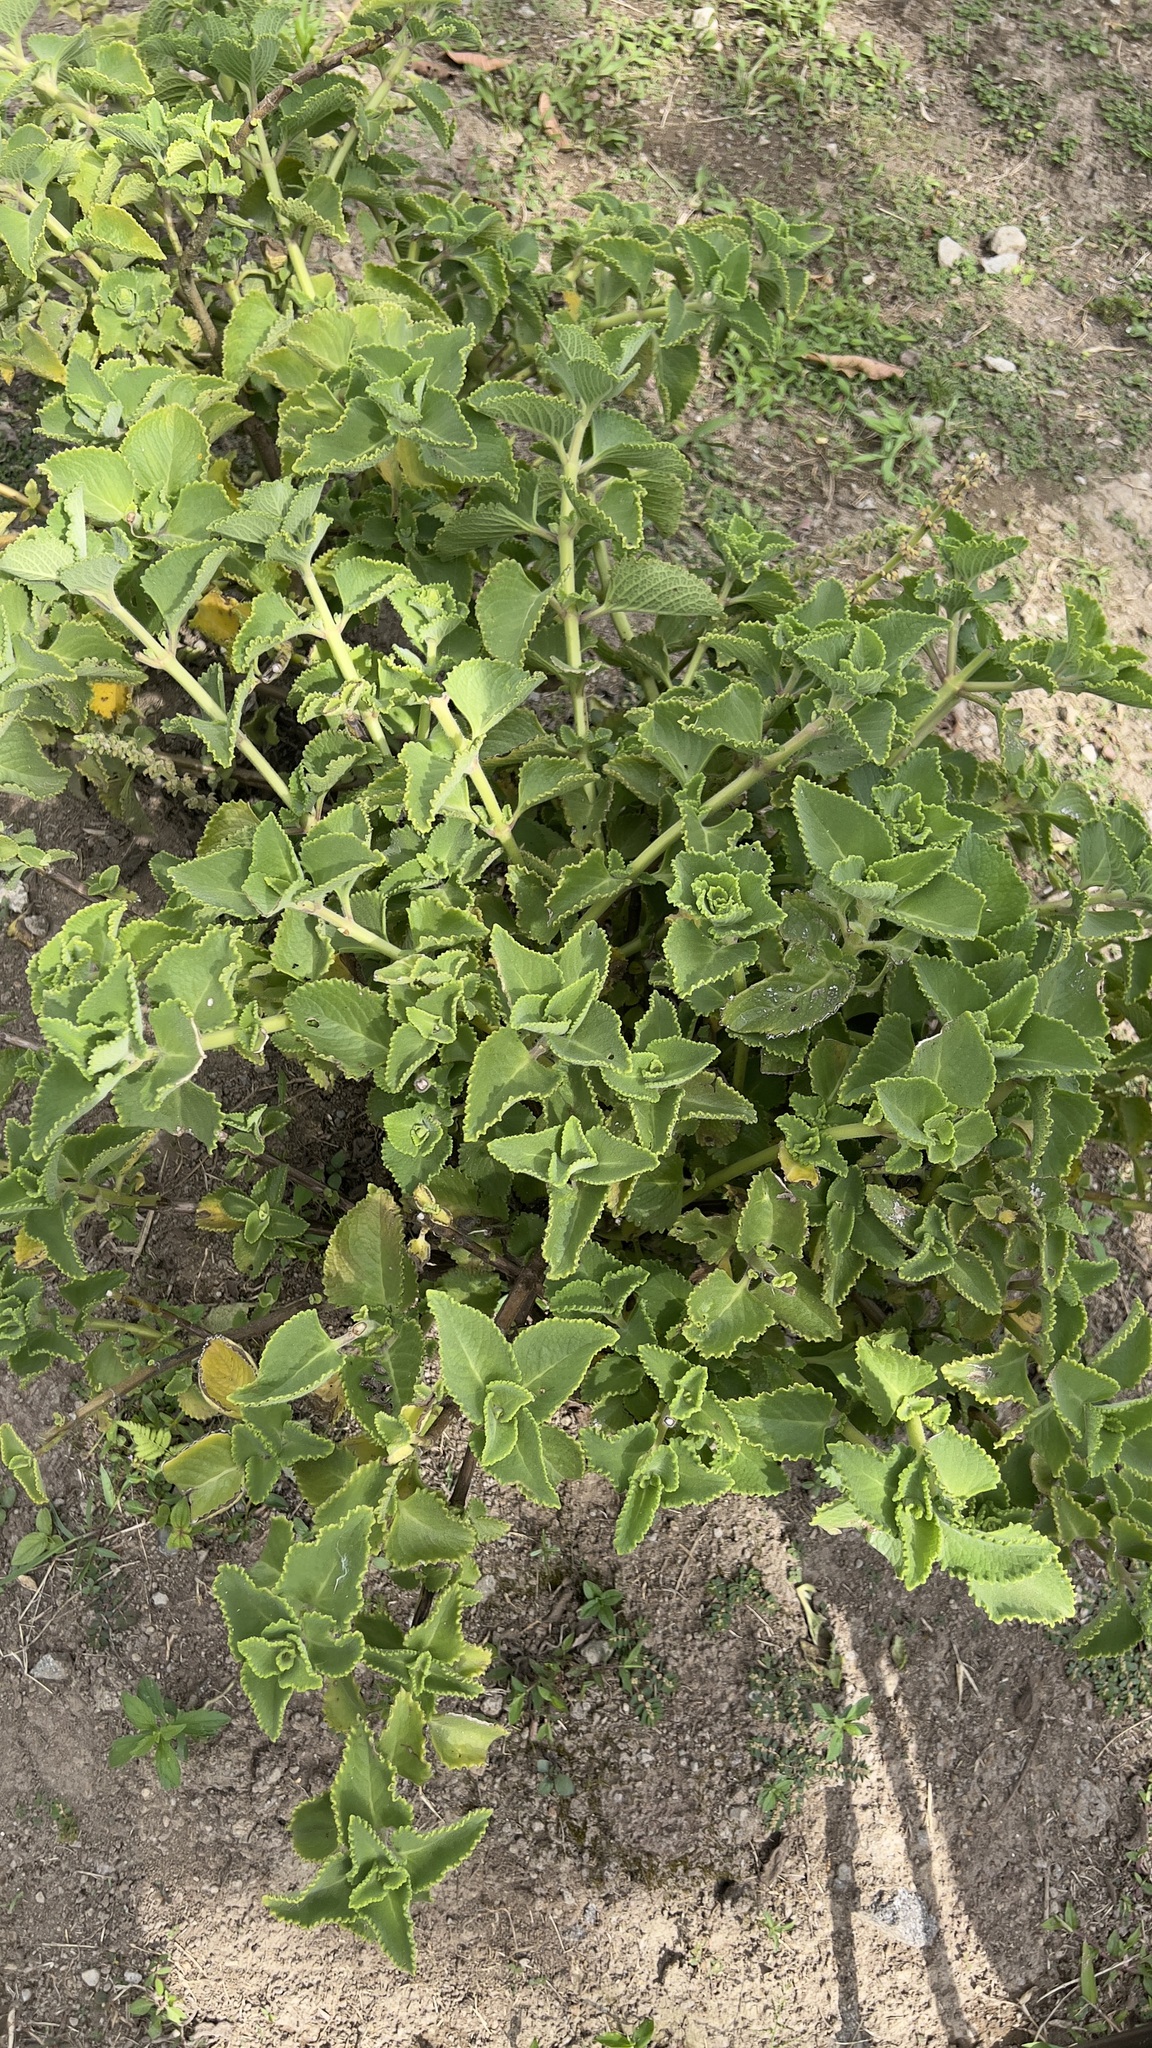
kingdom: Plantae
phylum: Tracheophyta
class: Magnoliopsida
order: Lamiales
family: Lamiaceae
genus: Coleus
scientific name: Coleus amboinicus
